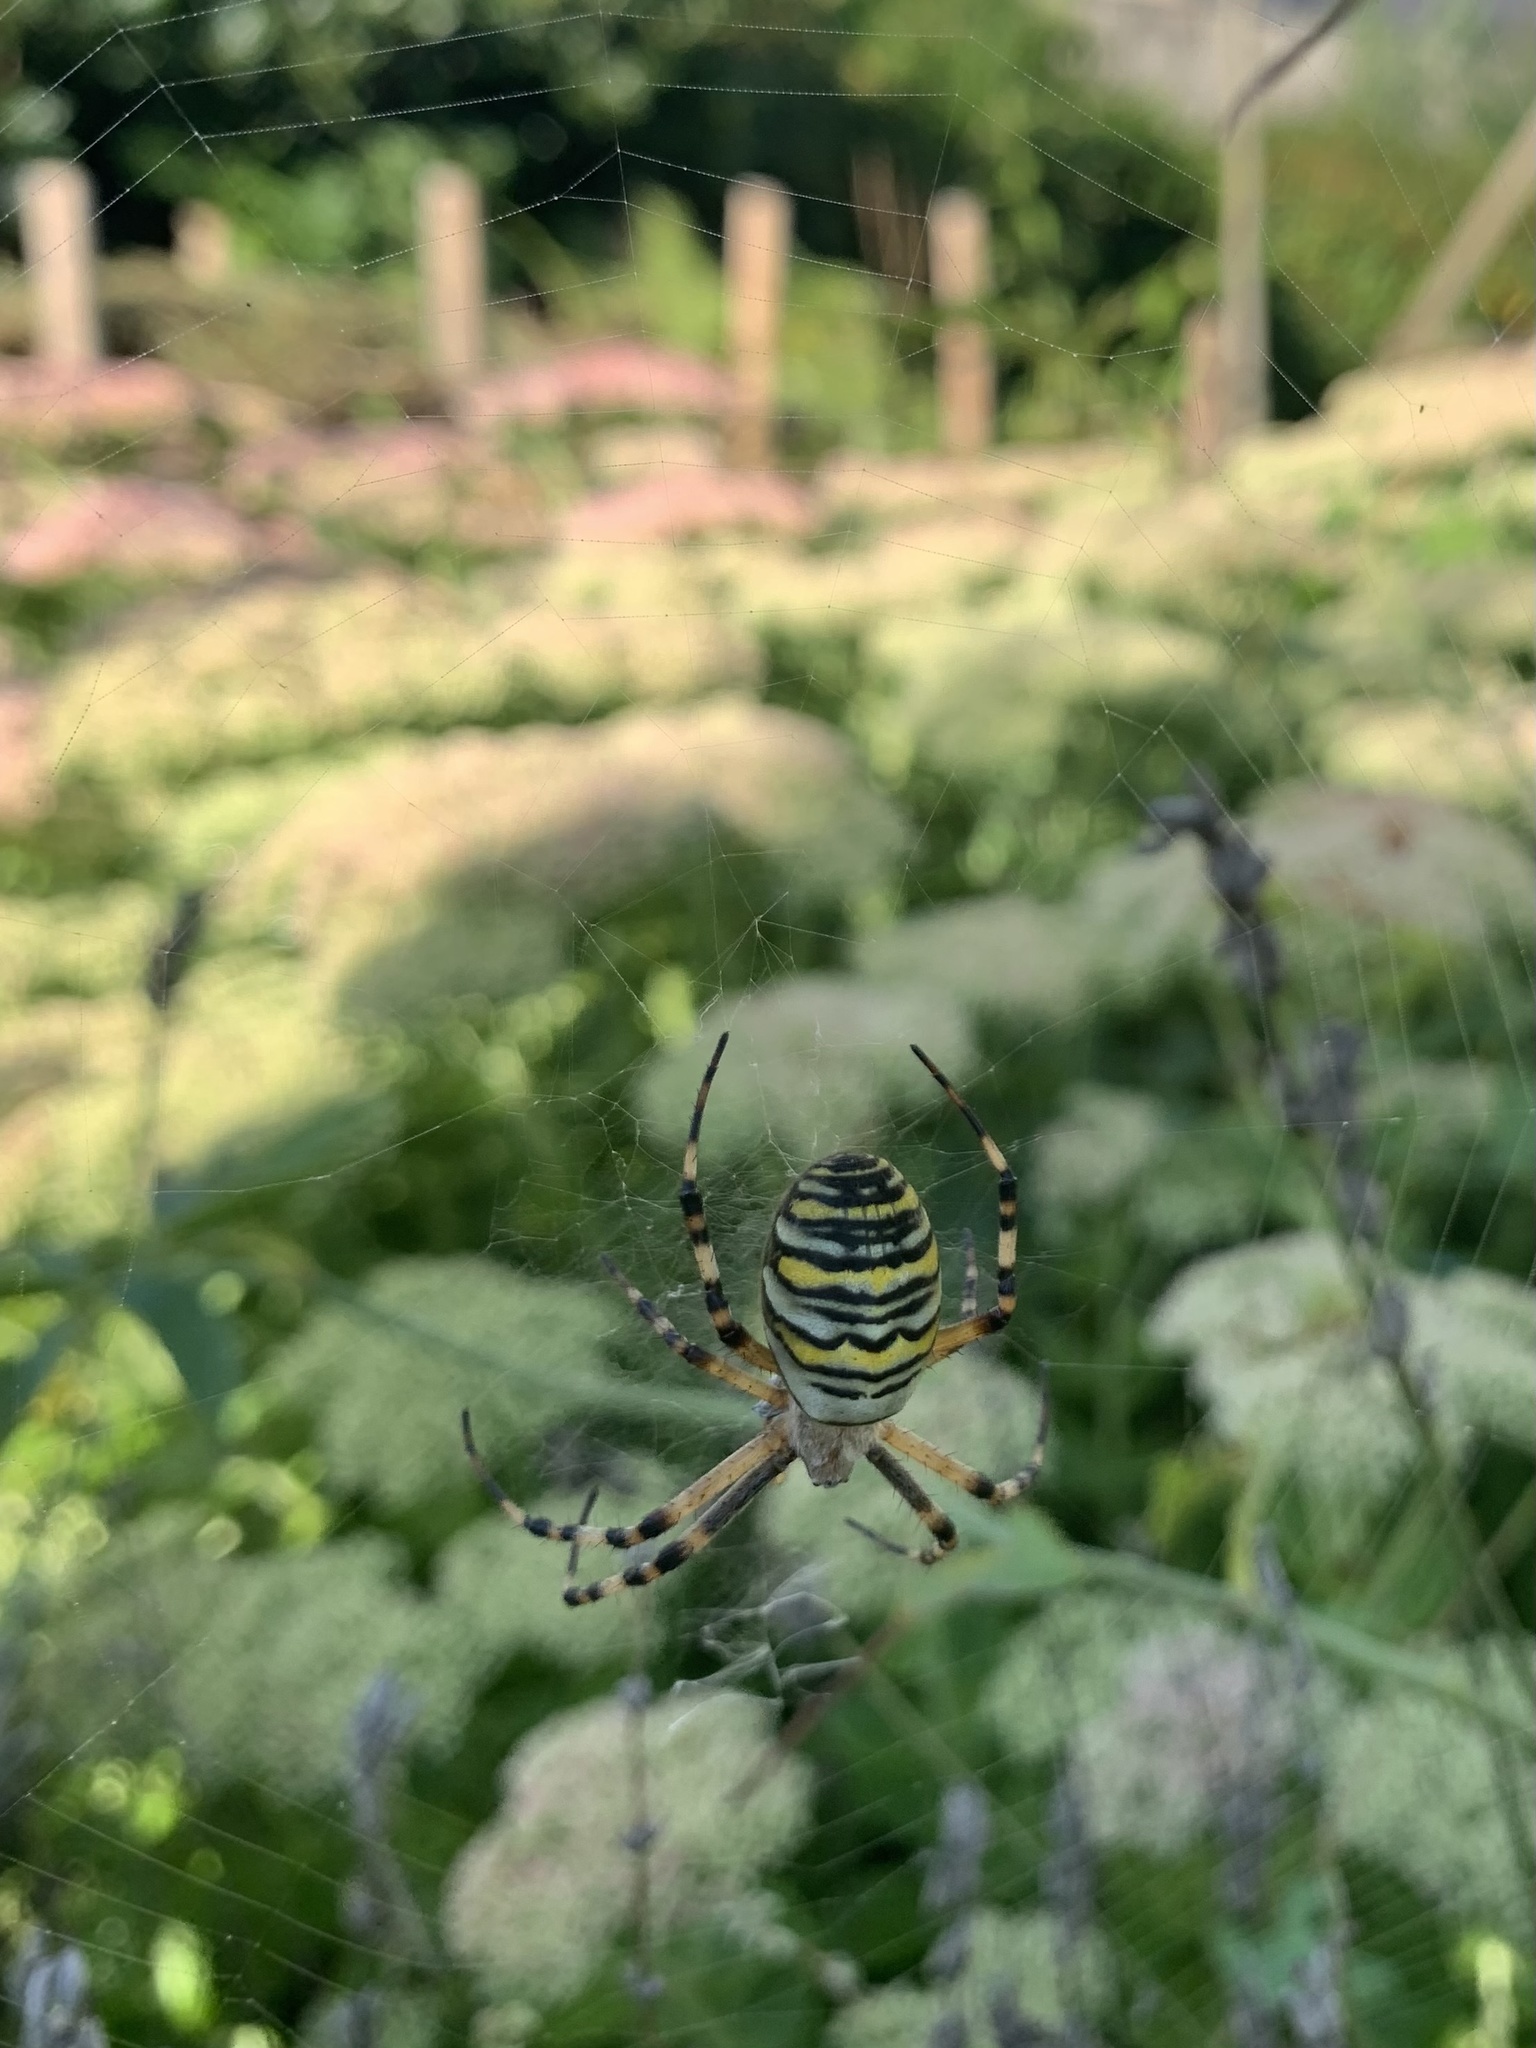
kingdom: Animalia
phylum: Arthropoda
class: Arachnida
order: Araneae
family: Araneidae
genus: Argiope
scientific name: Argiope bruennichi
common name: Wasp spider
